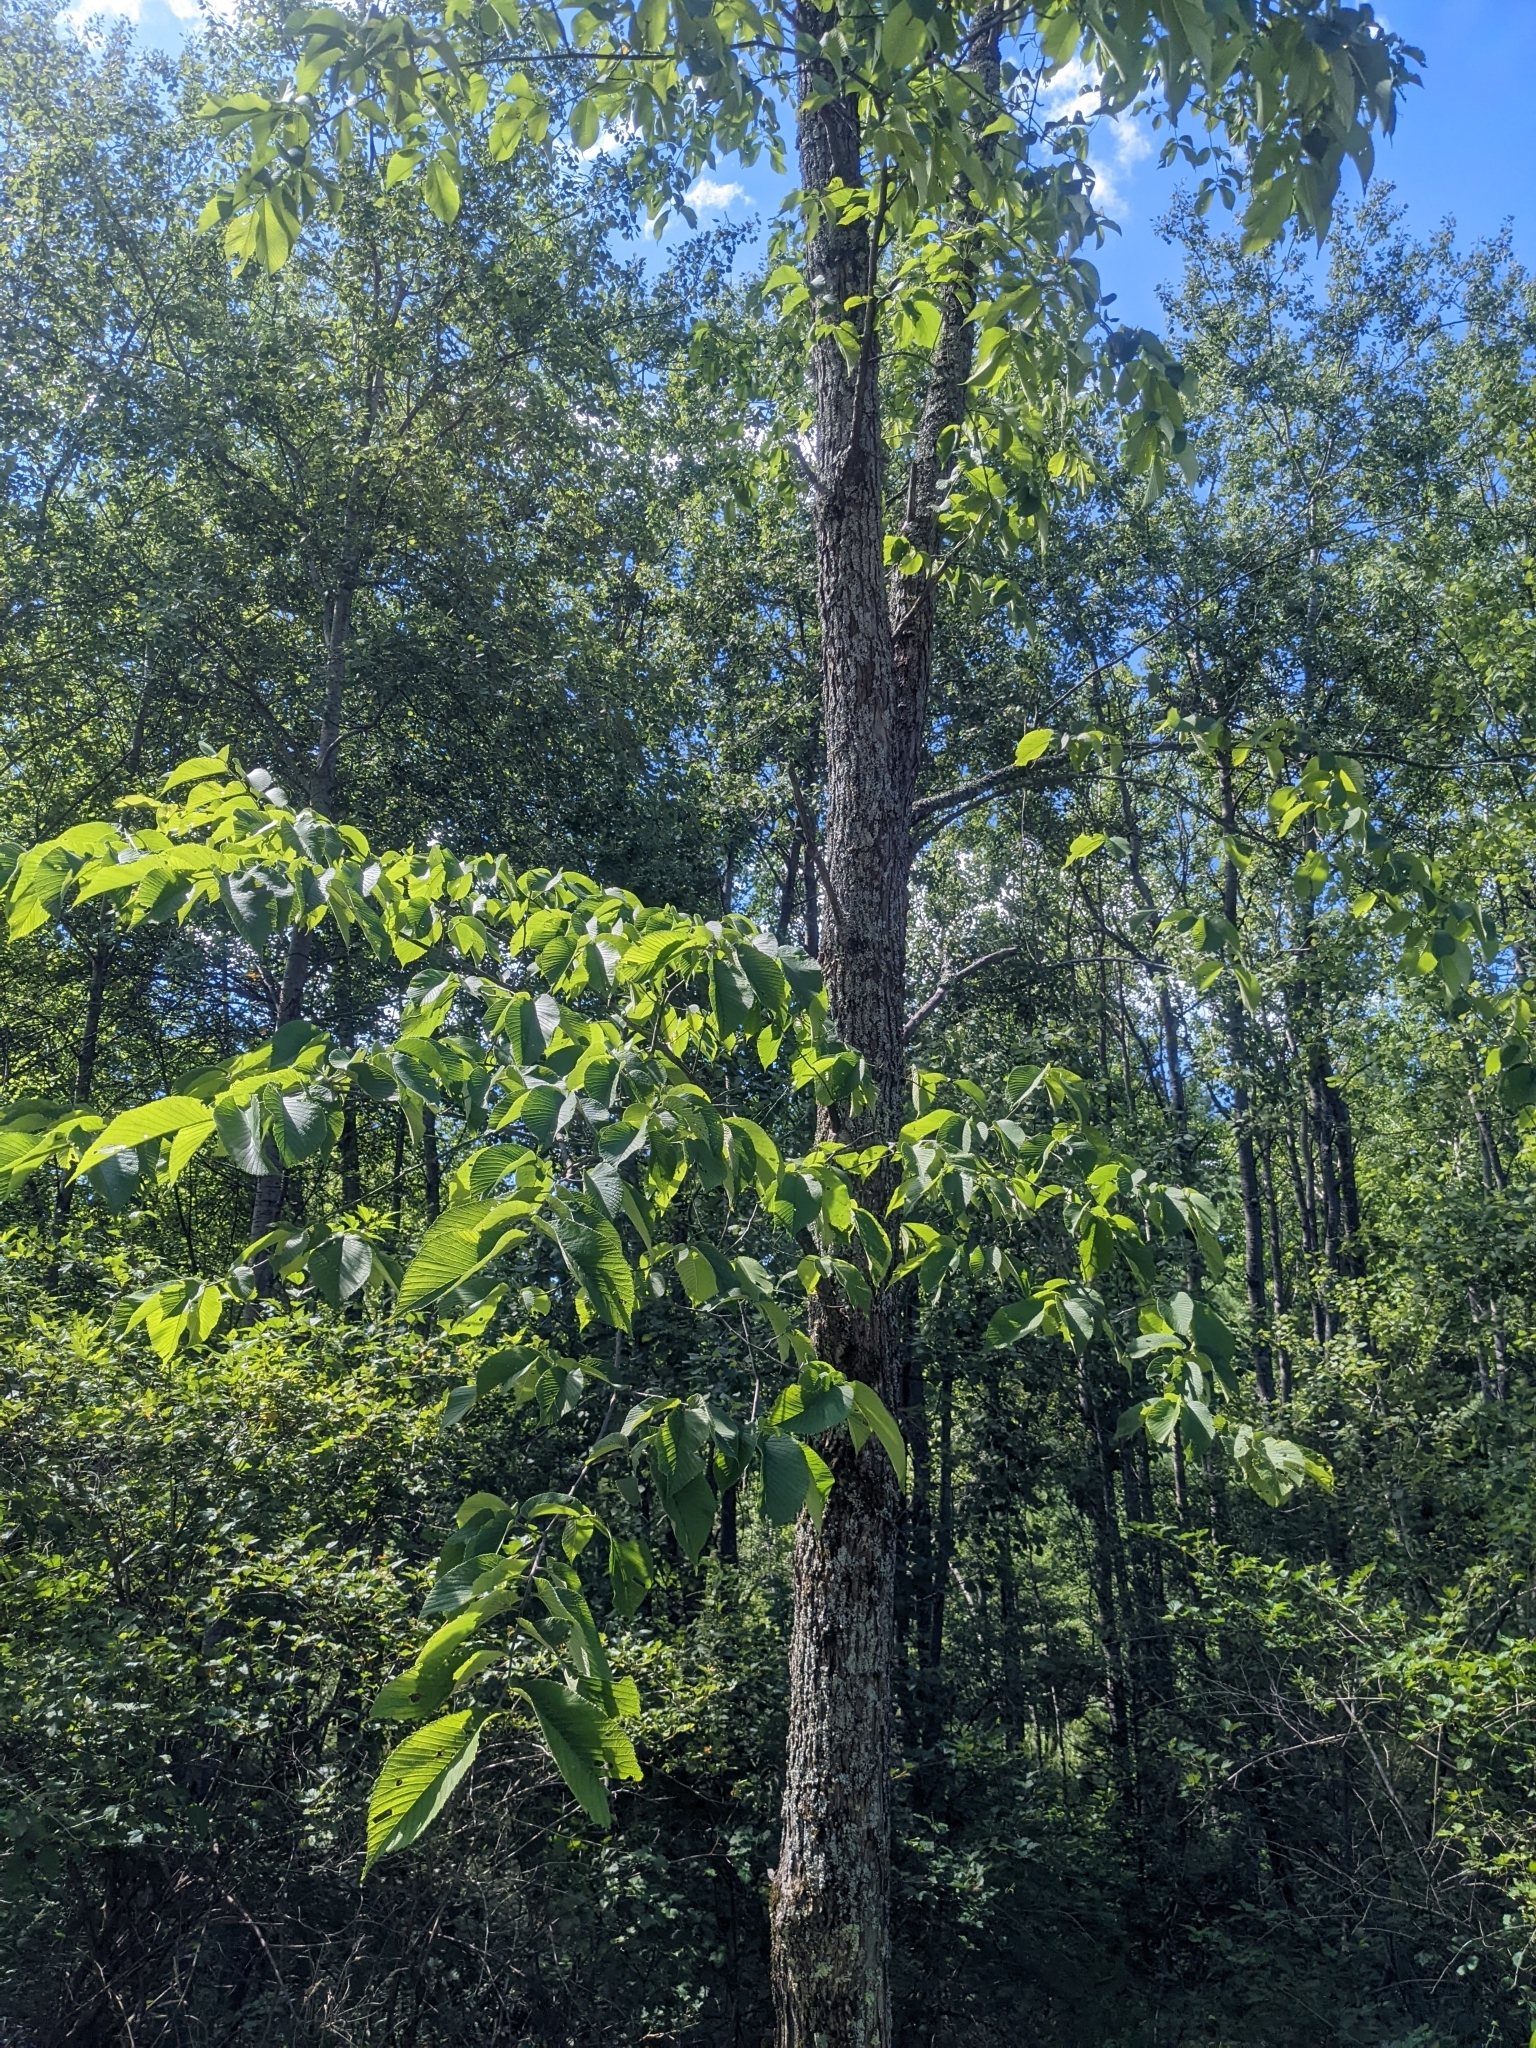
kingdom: Plantae
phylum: Tracheophyta
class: Magnoliopsida
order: Rosales
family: Ulmaceae
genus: Ulmus
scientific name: Ulmus rubra
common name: Slippery elm
